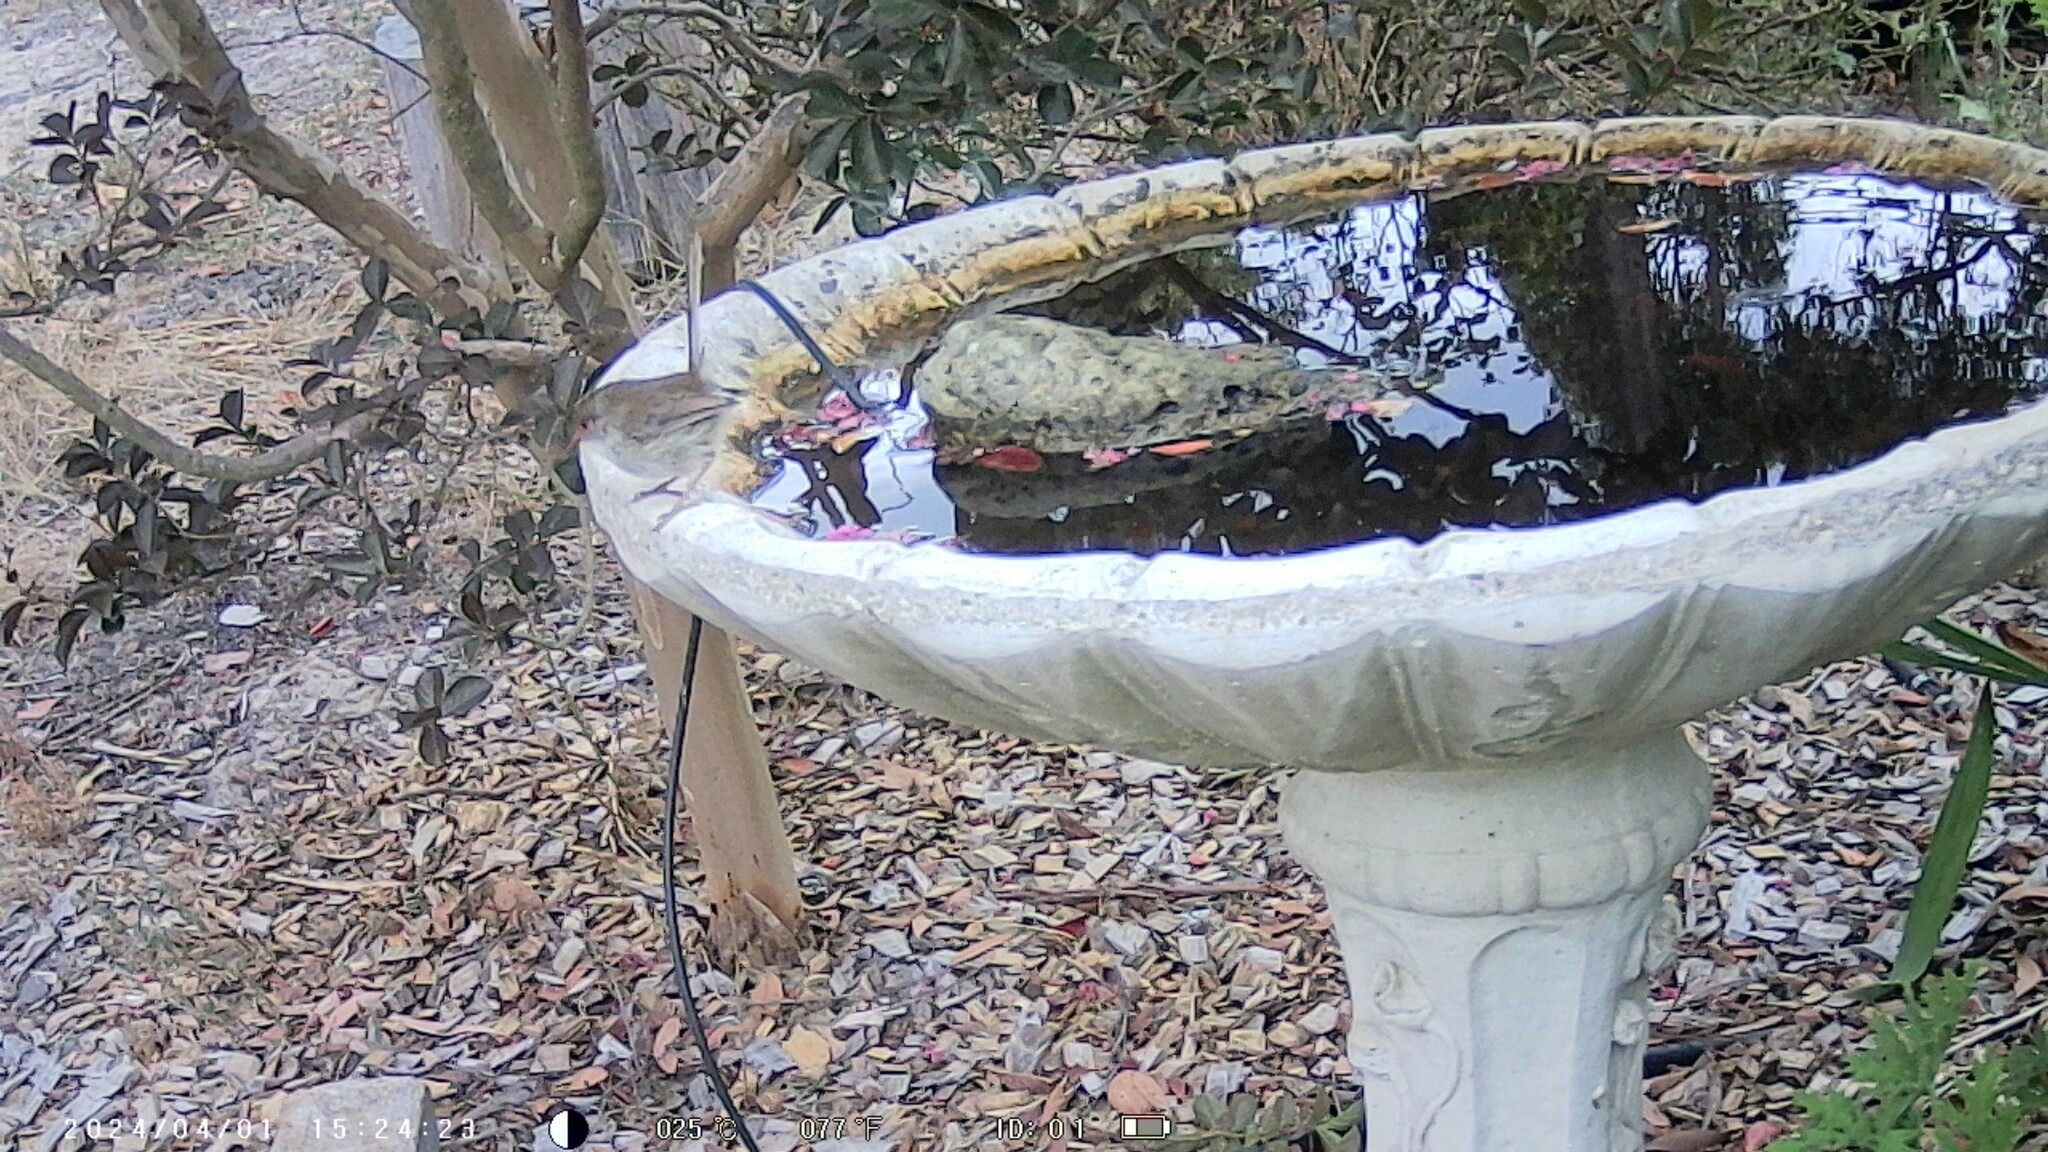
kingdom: Animalia
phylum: Chordata
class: Aves
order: Passeriformes
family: Maluridae
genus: Malurus
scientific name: Malurus cyaneus
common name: Superb fairywren
